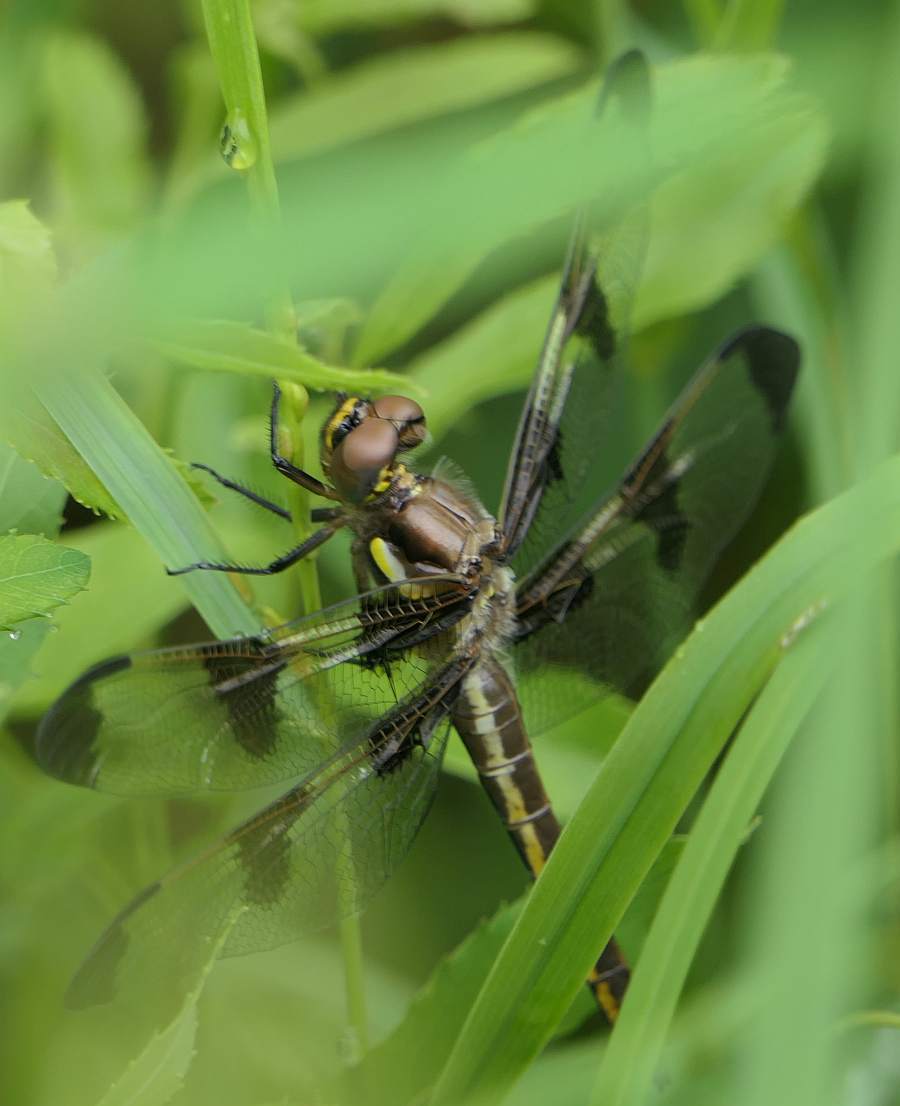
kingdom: Animalia
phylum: Arthropoda
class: Insecta
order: Odonata
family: Libellulidae
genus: Libellula
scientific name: Libellula pulchella
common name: Twelve-spotted skimmer
